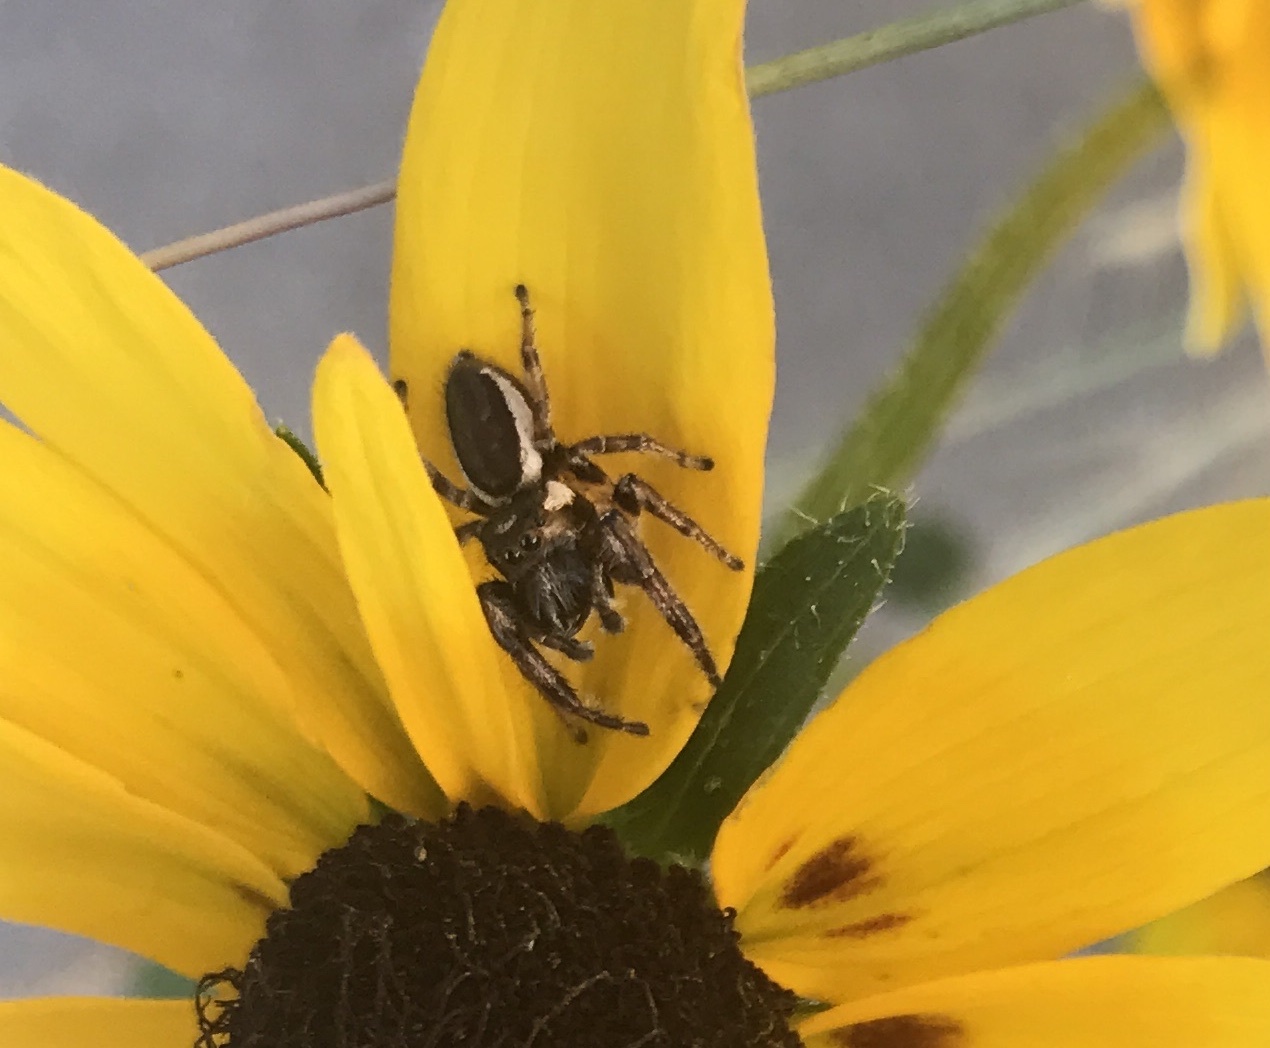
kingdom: Animalia
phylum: Arthropoda
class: Arachnida
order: Araneae
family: Salticidae
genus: Eris
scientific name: Eris militaris
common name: Bronze jumper
